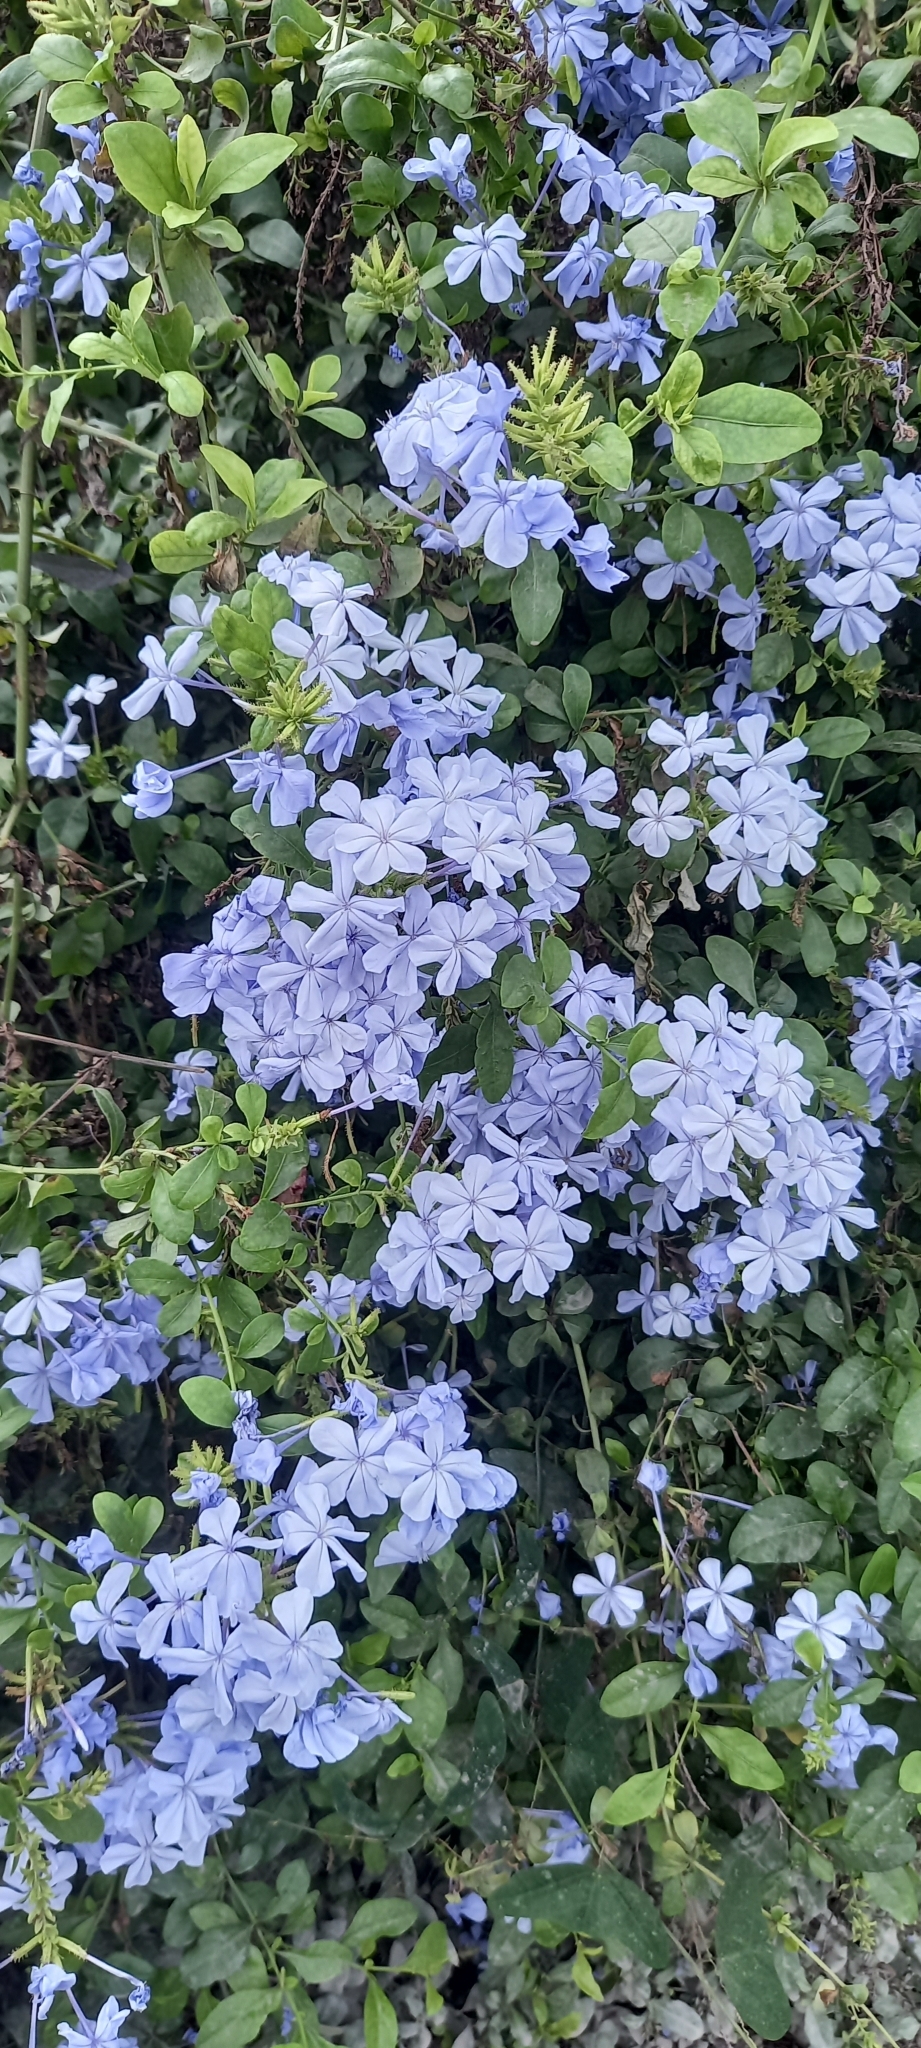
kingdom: Plantae
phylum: Tracheophyta
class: Magnoliopsida
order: Caryophyllales
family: Plumbaginaceae
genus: Plumbago
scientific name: Plumbago auriculata
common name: Cape leadwort
